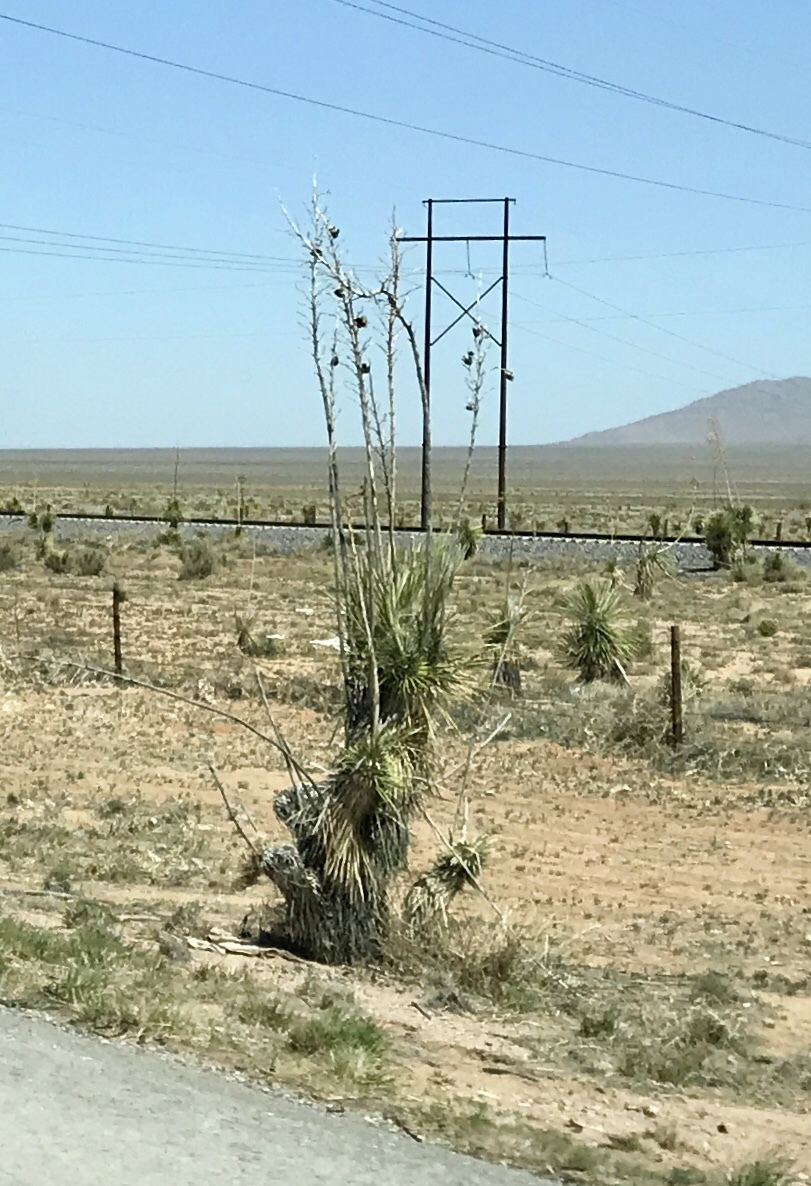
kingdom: Plantae
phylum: Tracheophyta
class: Liliopsida
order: Asparagales
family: Asparagaceae
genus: Yucca
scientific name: Yucca elata
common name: Palmella
